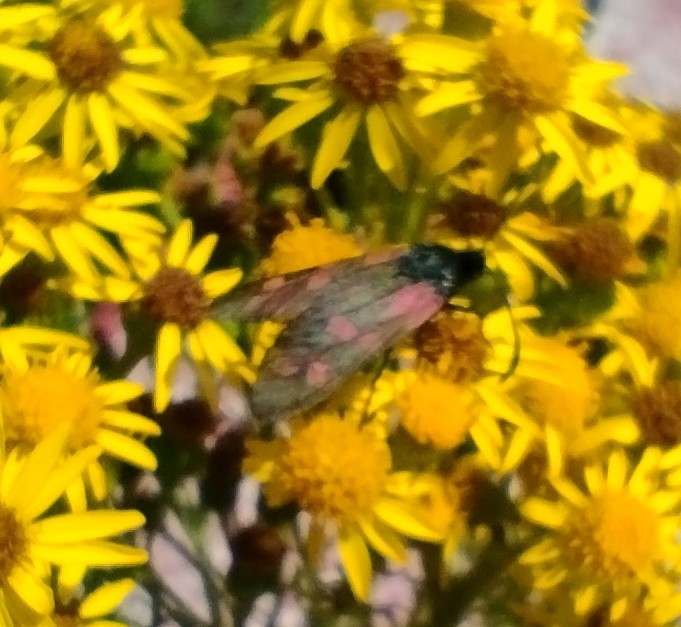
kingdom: Animalia
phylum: Arthropoda
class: Insecta
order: Lepidoptera
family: Zygaenidae
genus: Zygaena
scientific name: Zygaena filipendulae
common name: Six-spot burnet
